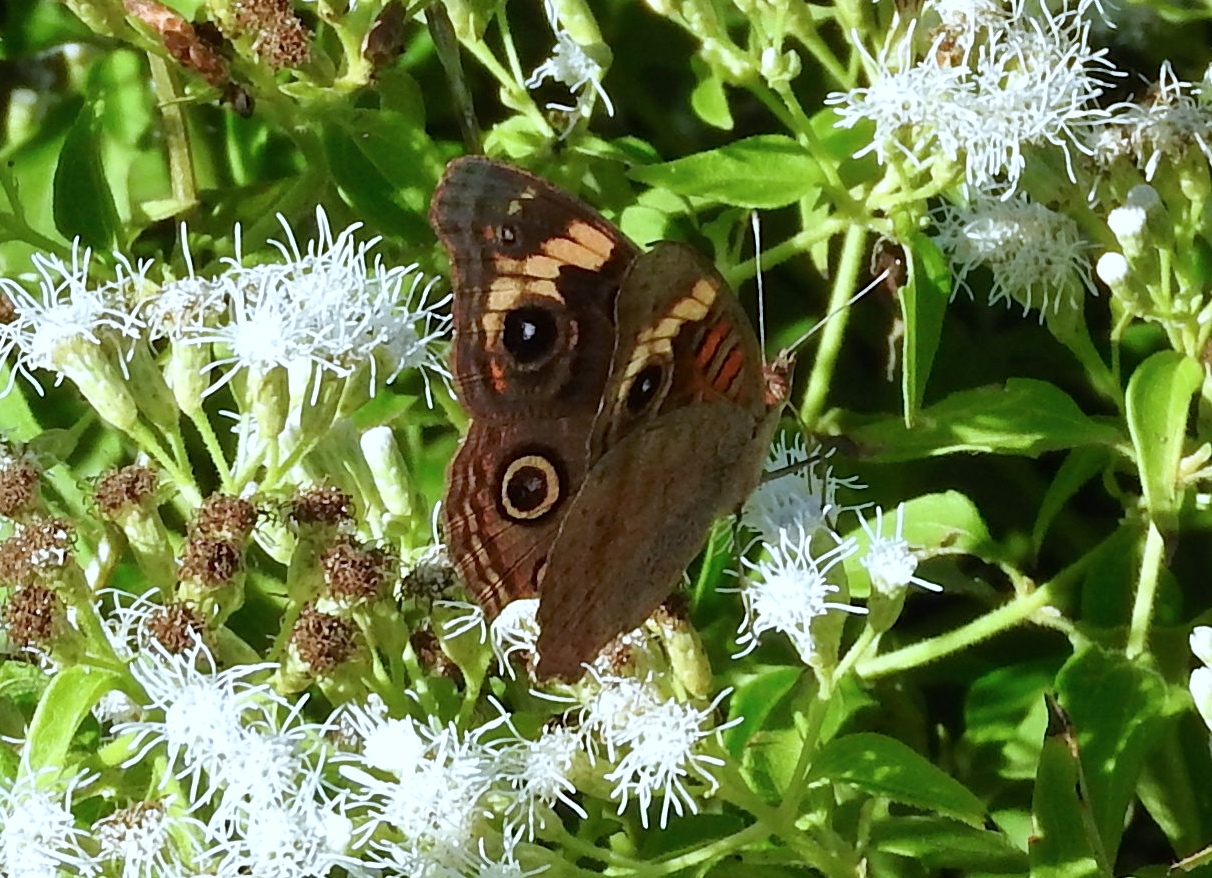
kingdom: Animalia
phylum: Arthropoda
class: Insecta
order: Lepidoptera
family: Nymphalidae
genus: Junonia
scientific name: Junonia
